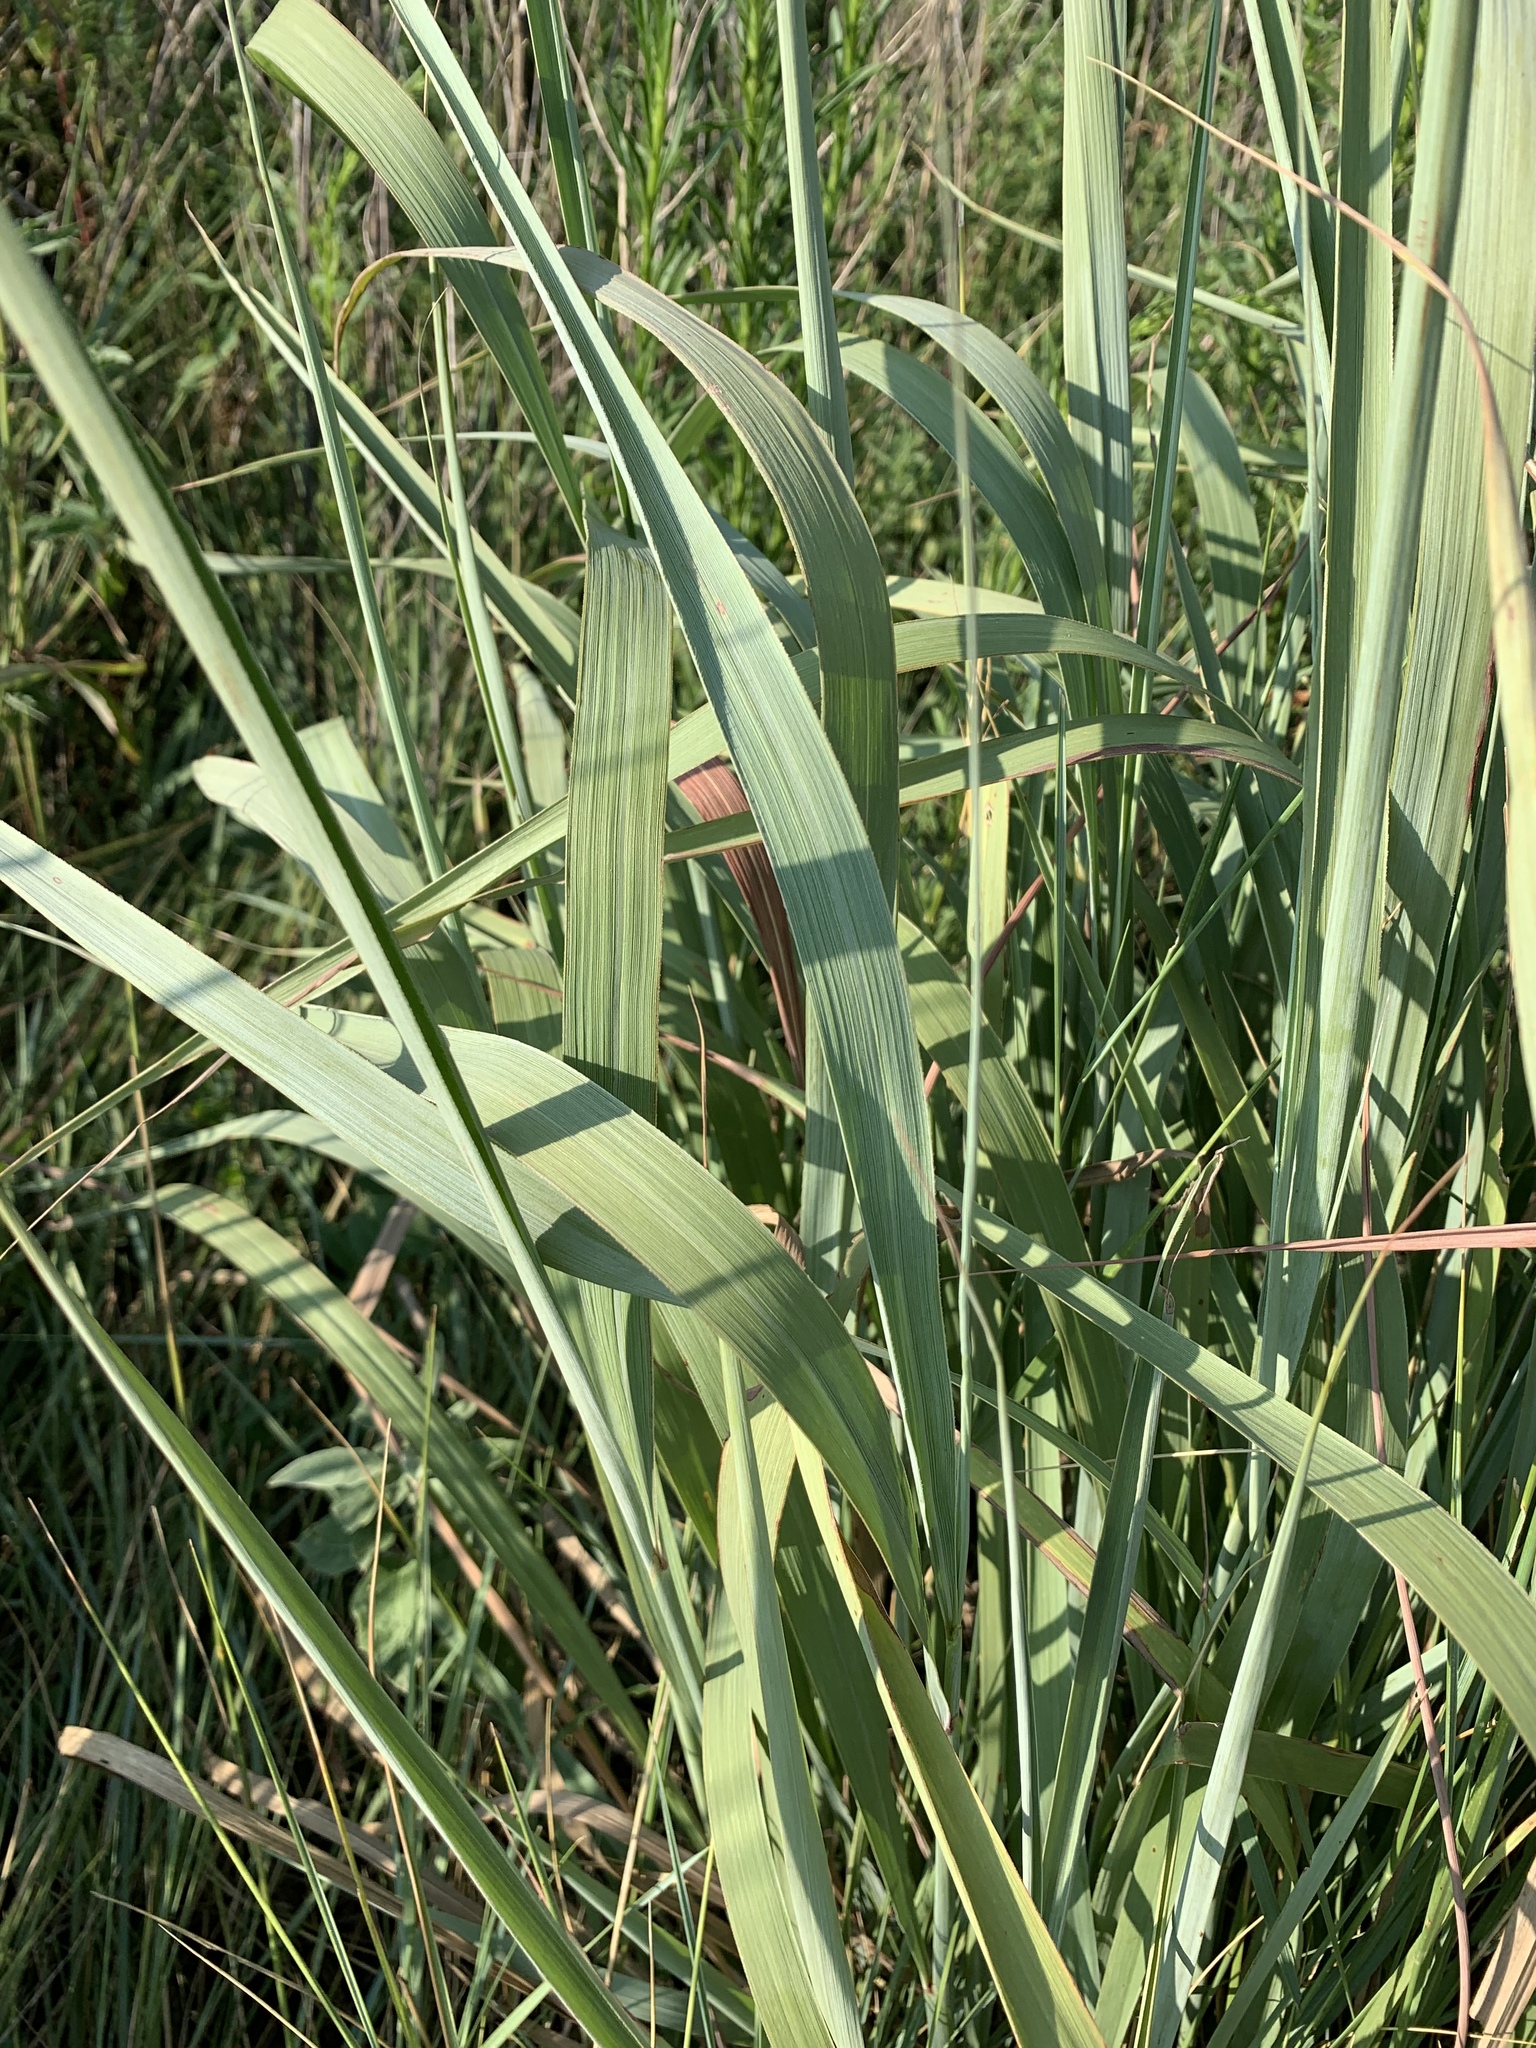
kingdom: Plantae
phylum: Tracheophyta
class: Liliopsida
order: Poales
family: Poaceae
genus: Sorghastrum
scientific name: Sorghastrum nutans
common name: Indian grass
